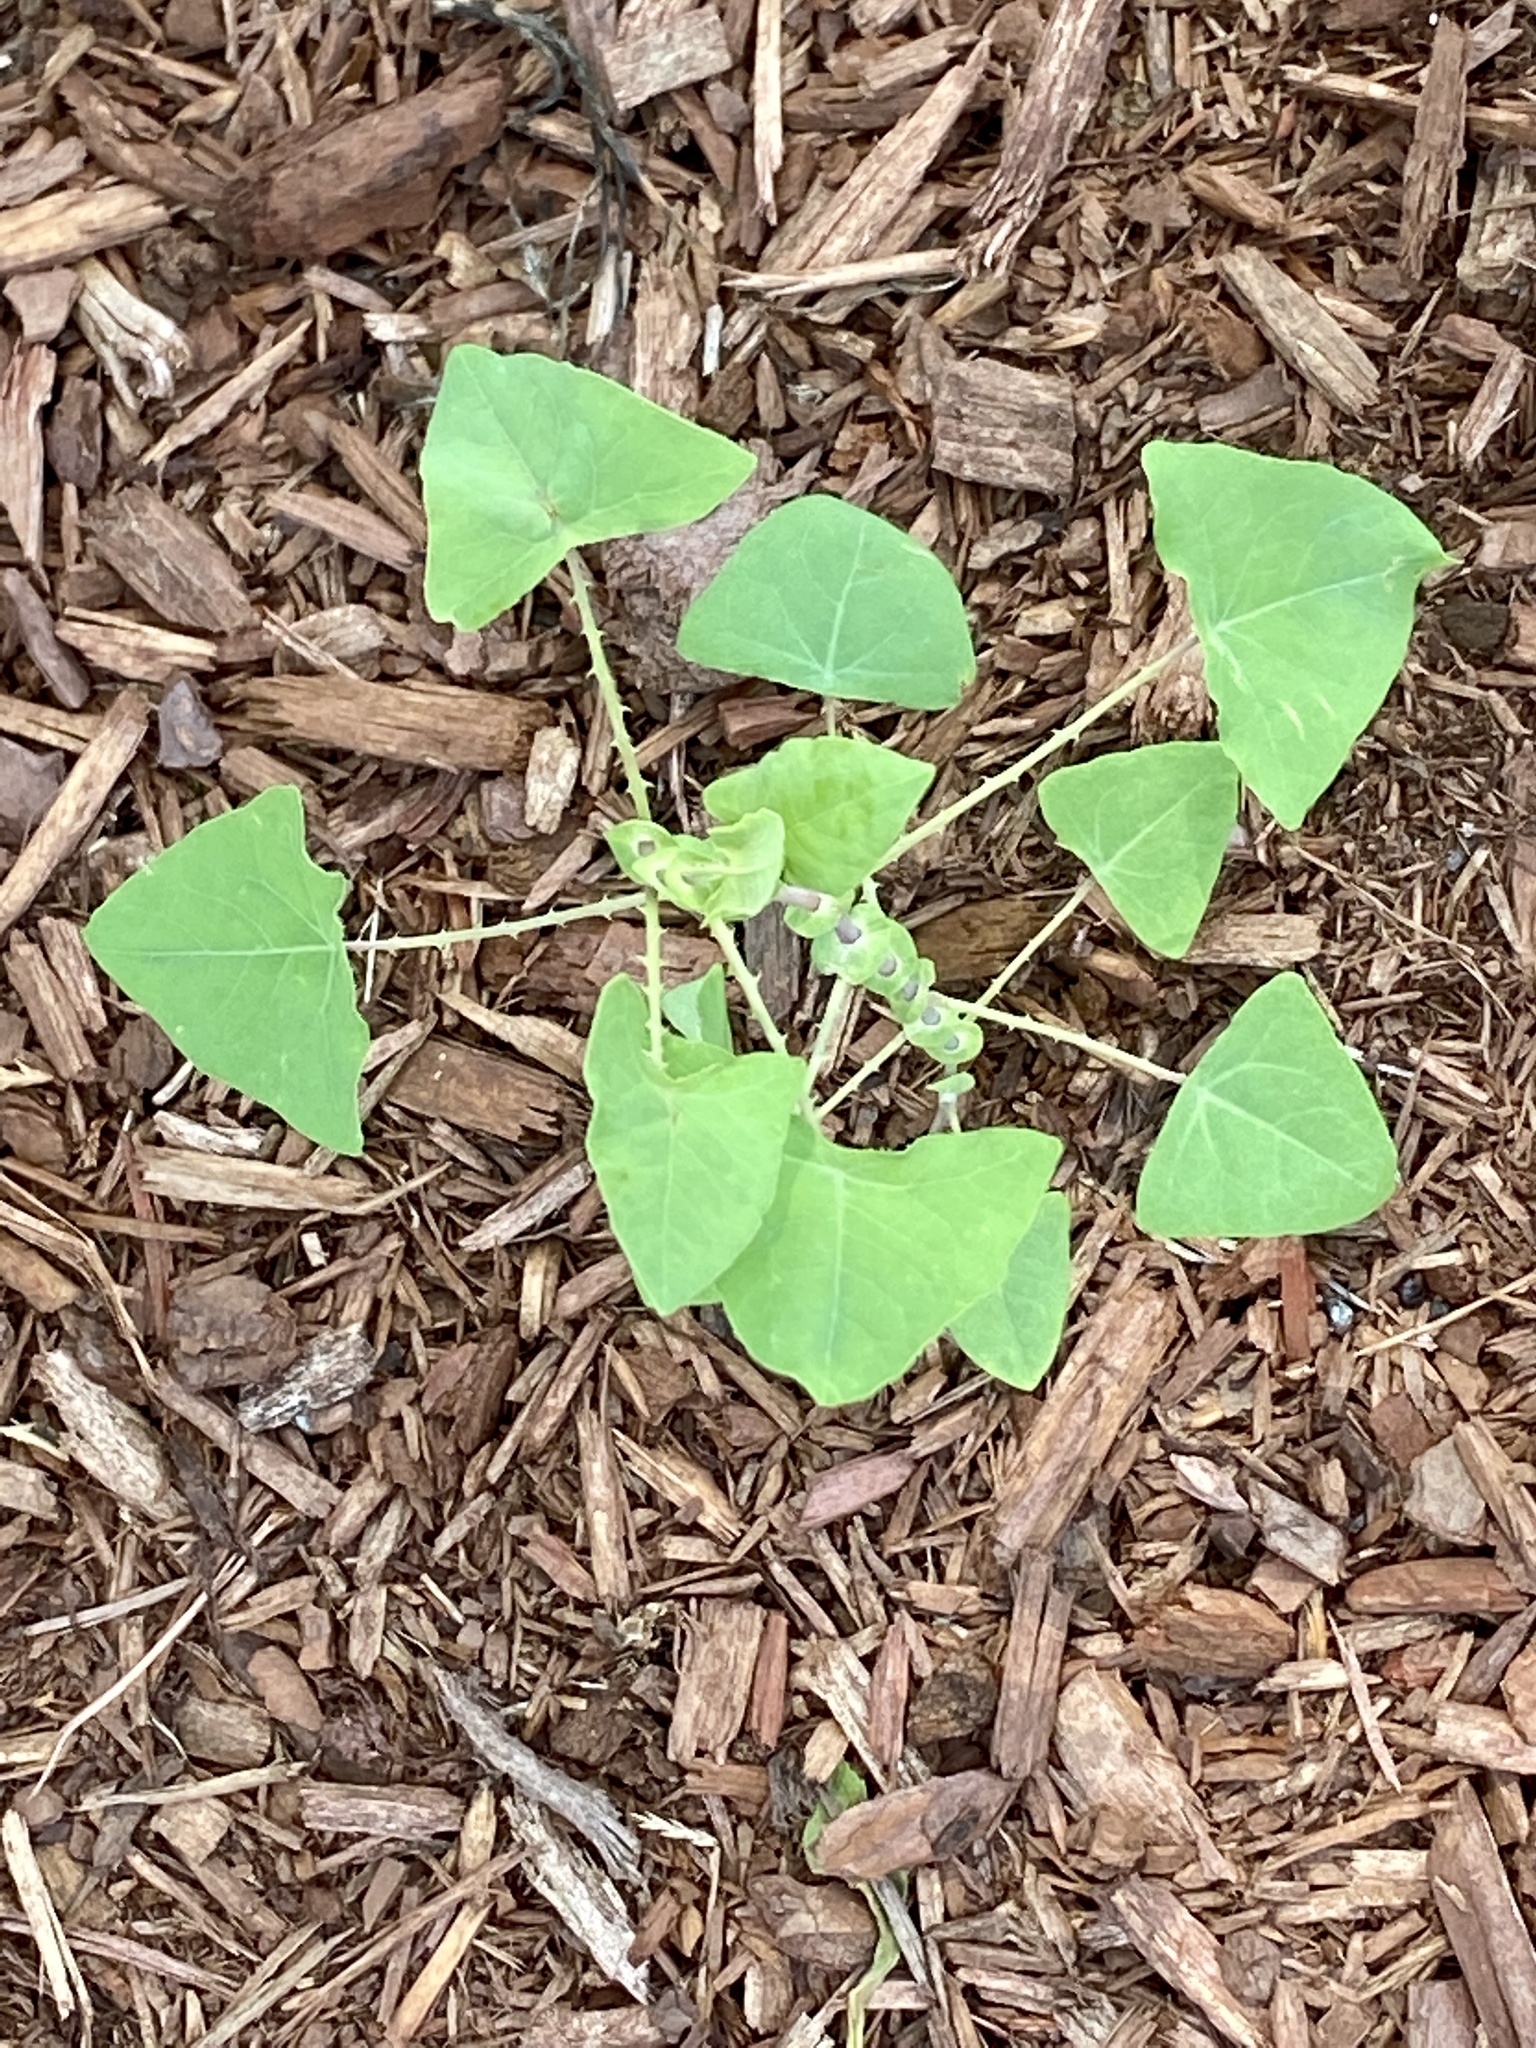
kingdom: Plantae
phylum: Tracheophyta
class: Magnoliopsida
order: Caryophyllales
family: Polygonaceae
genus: Persicaria
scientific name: Persicaria perfoliata
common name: Asiatic tearthumb
